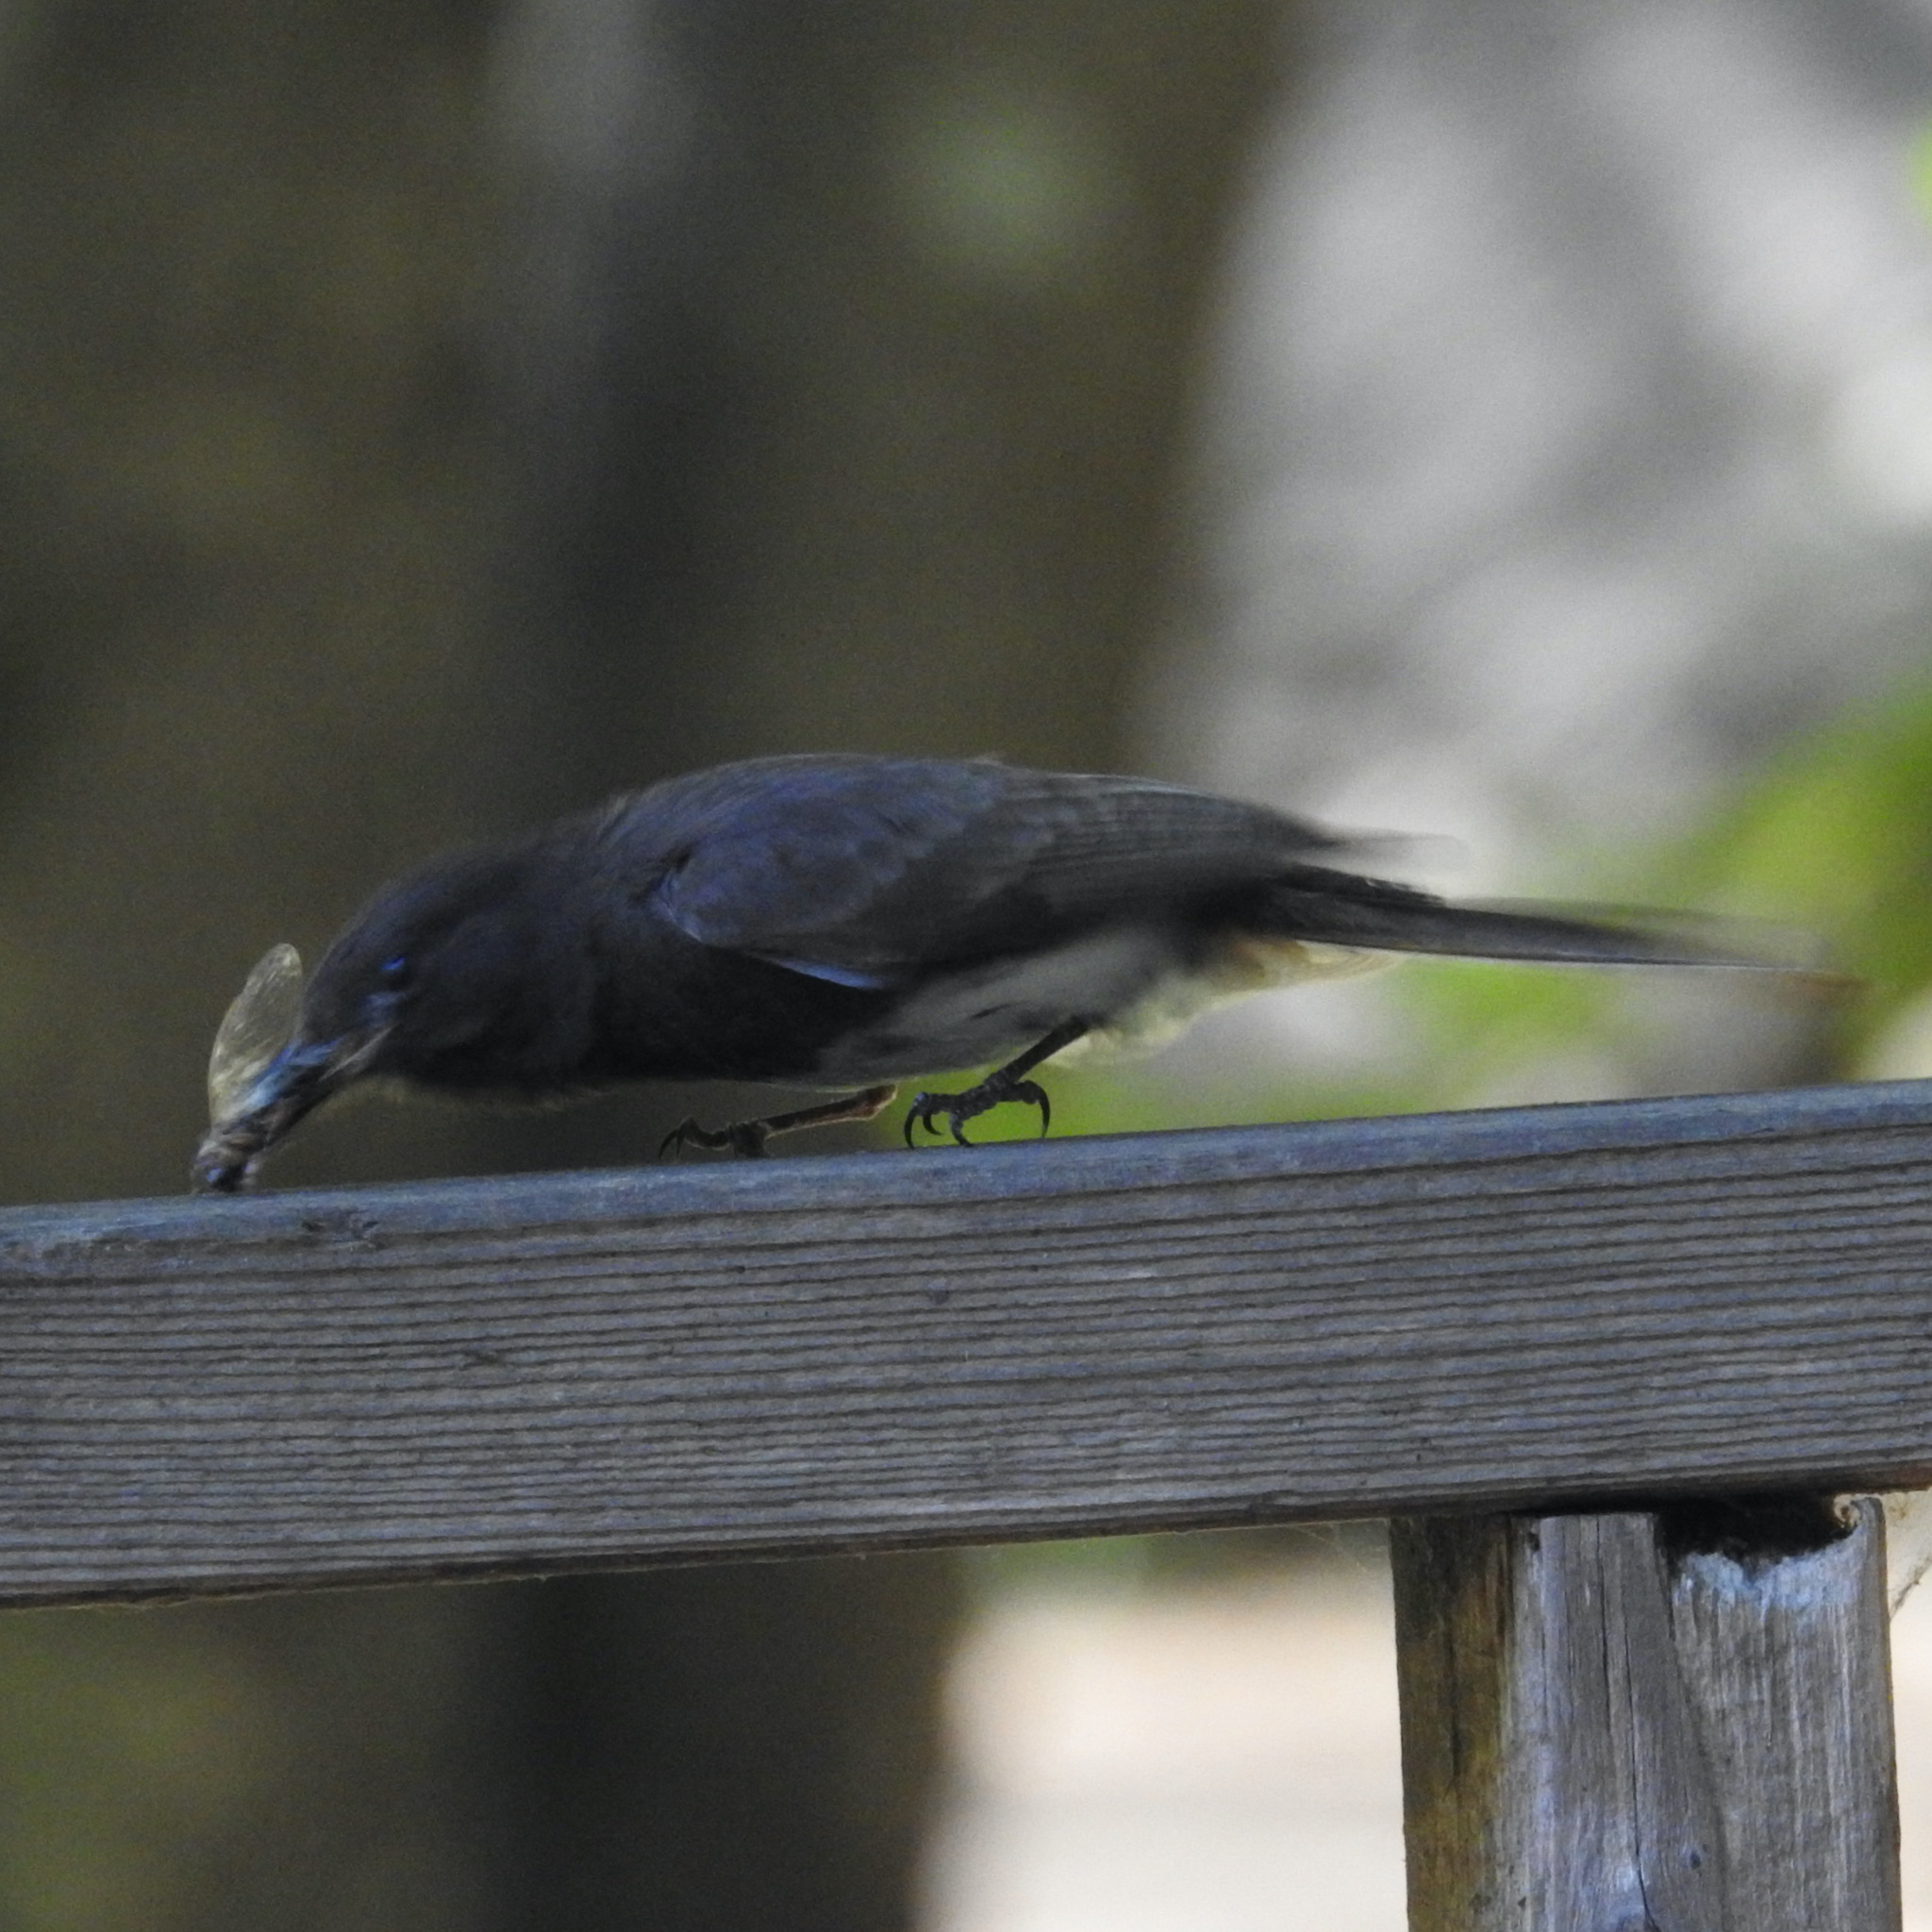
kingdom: Animalia
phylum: Chordata
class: Aves
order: Passeriformes
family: Tyrannidae
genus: Sayornis
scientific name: Sayornis nigricans
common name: Black phoebe
